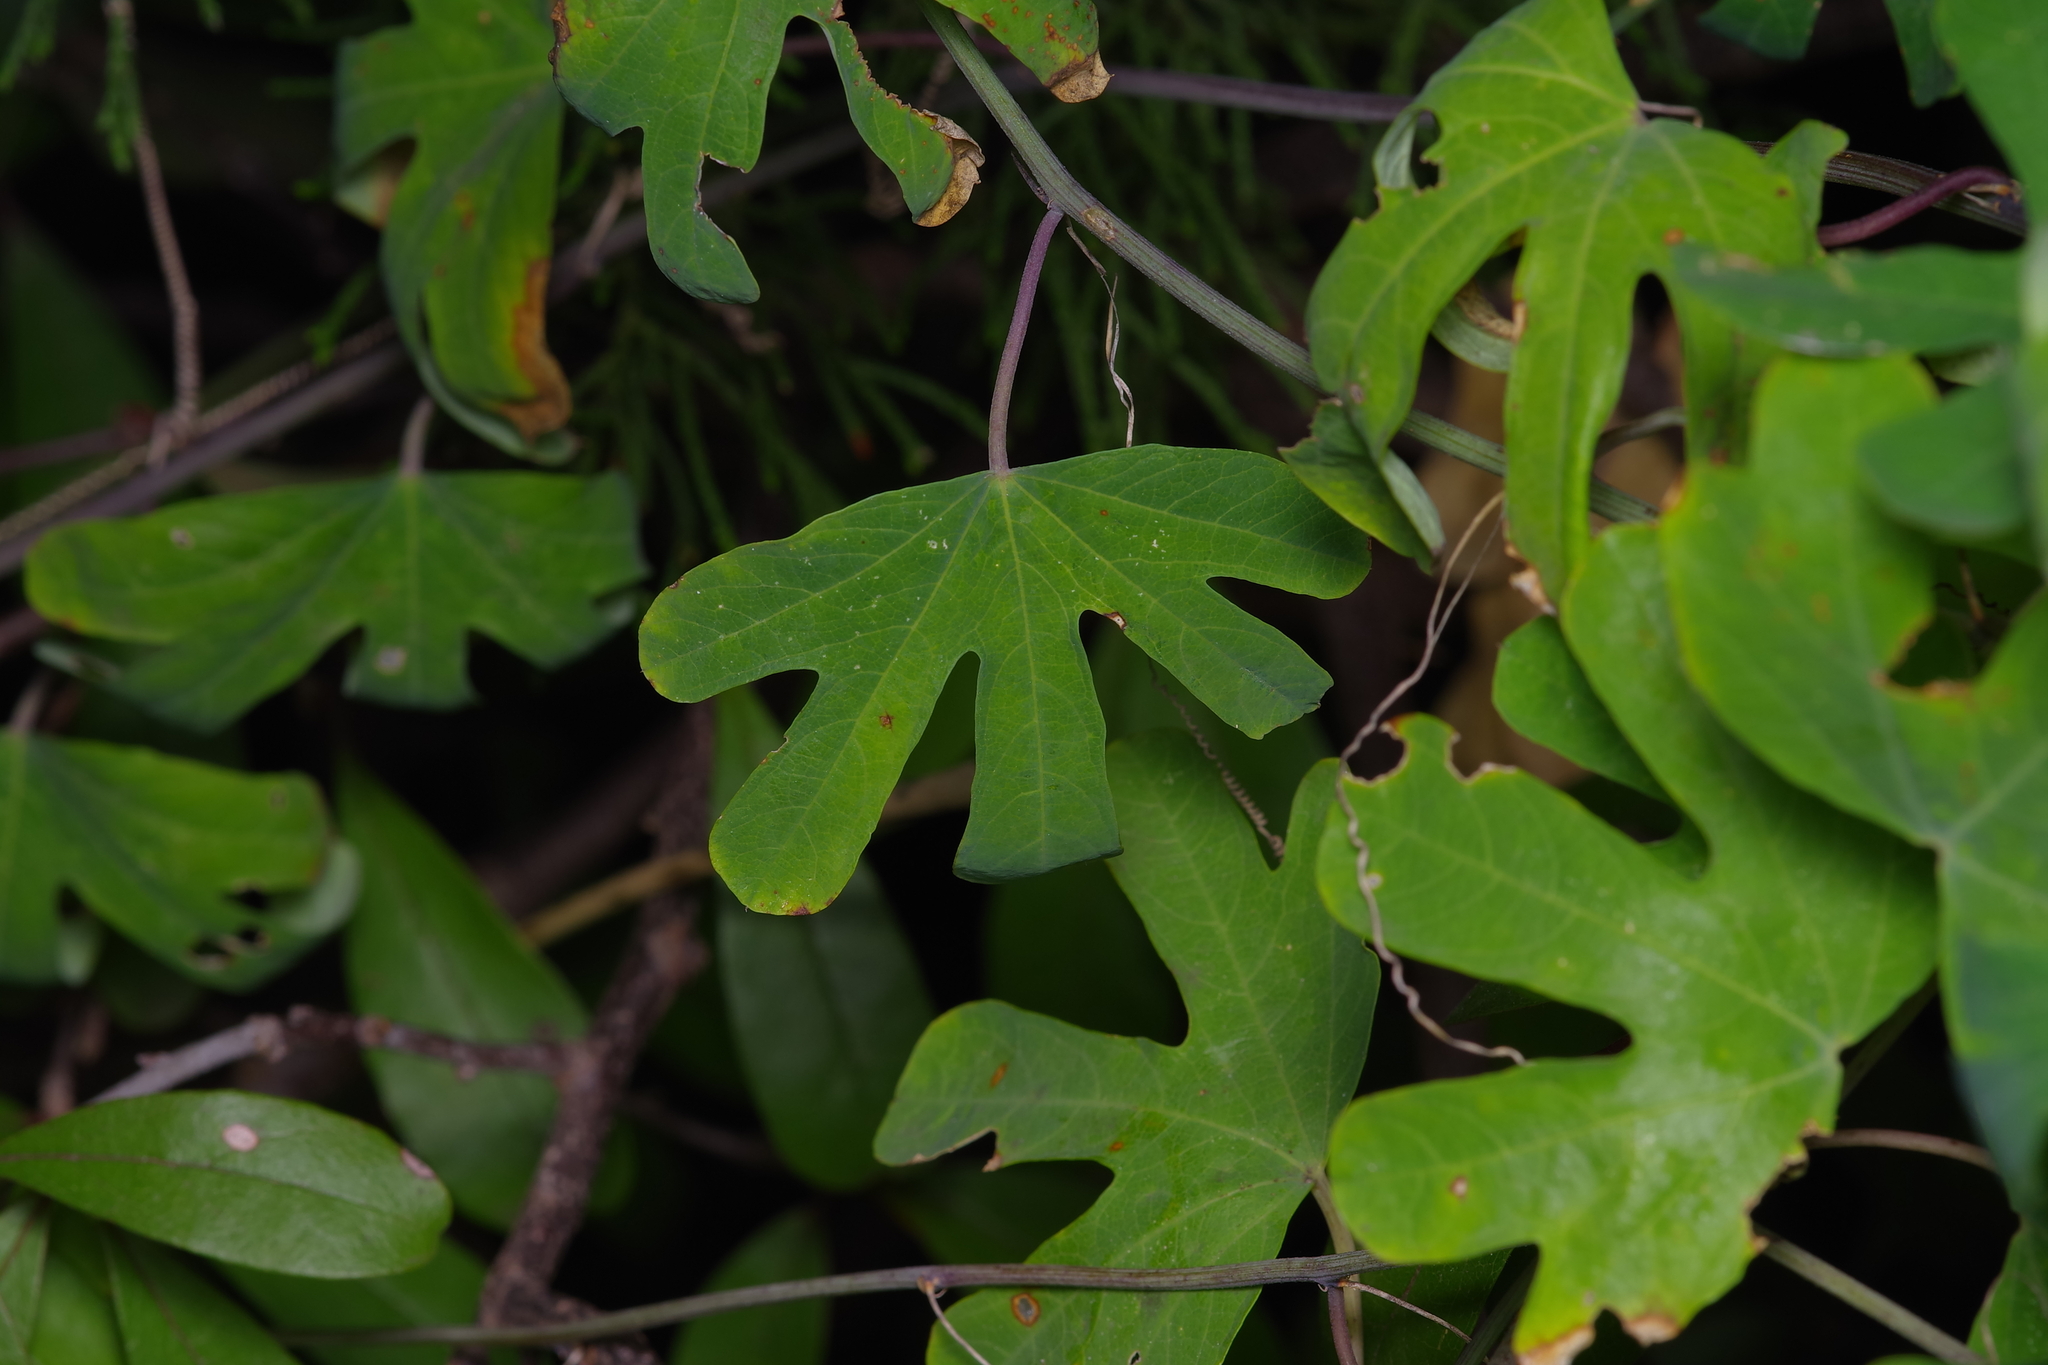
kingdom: Plantae
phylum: Tracheophyta
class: Magnoliopsida
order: Malpighiales
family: Passifloraceae
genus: Passiflora
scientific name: Passiflora affinis
